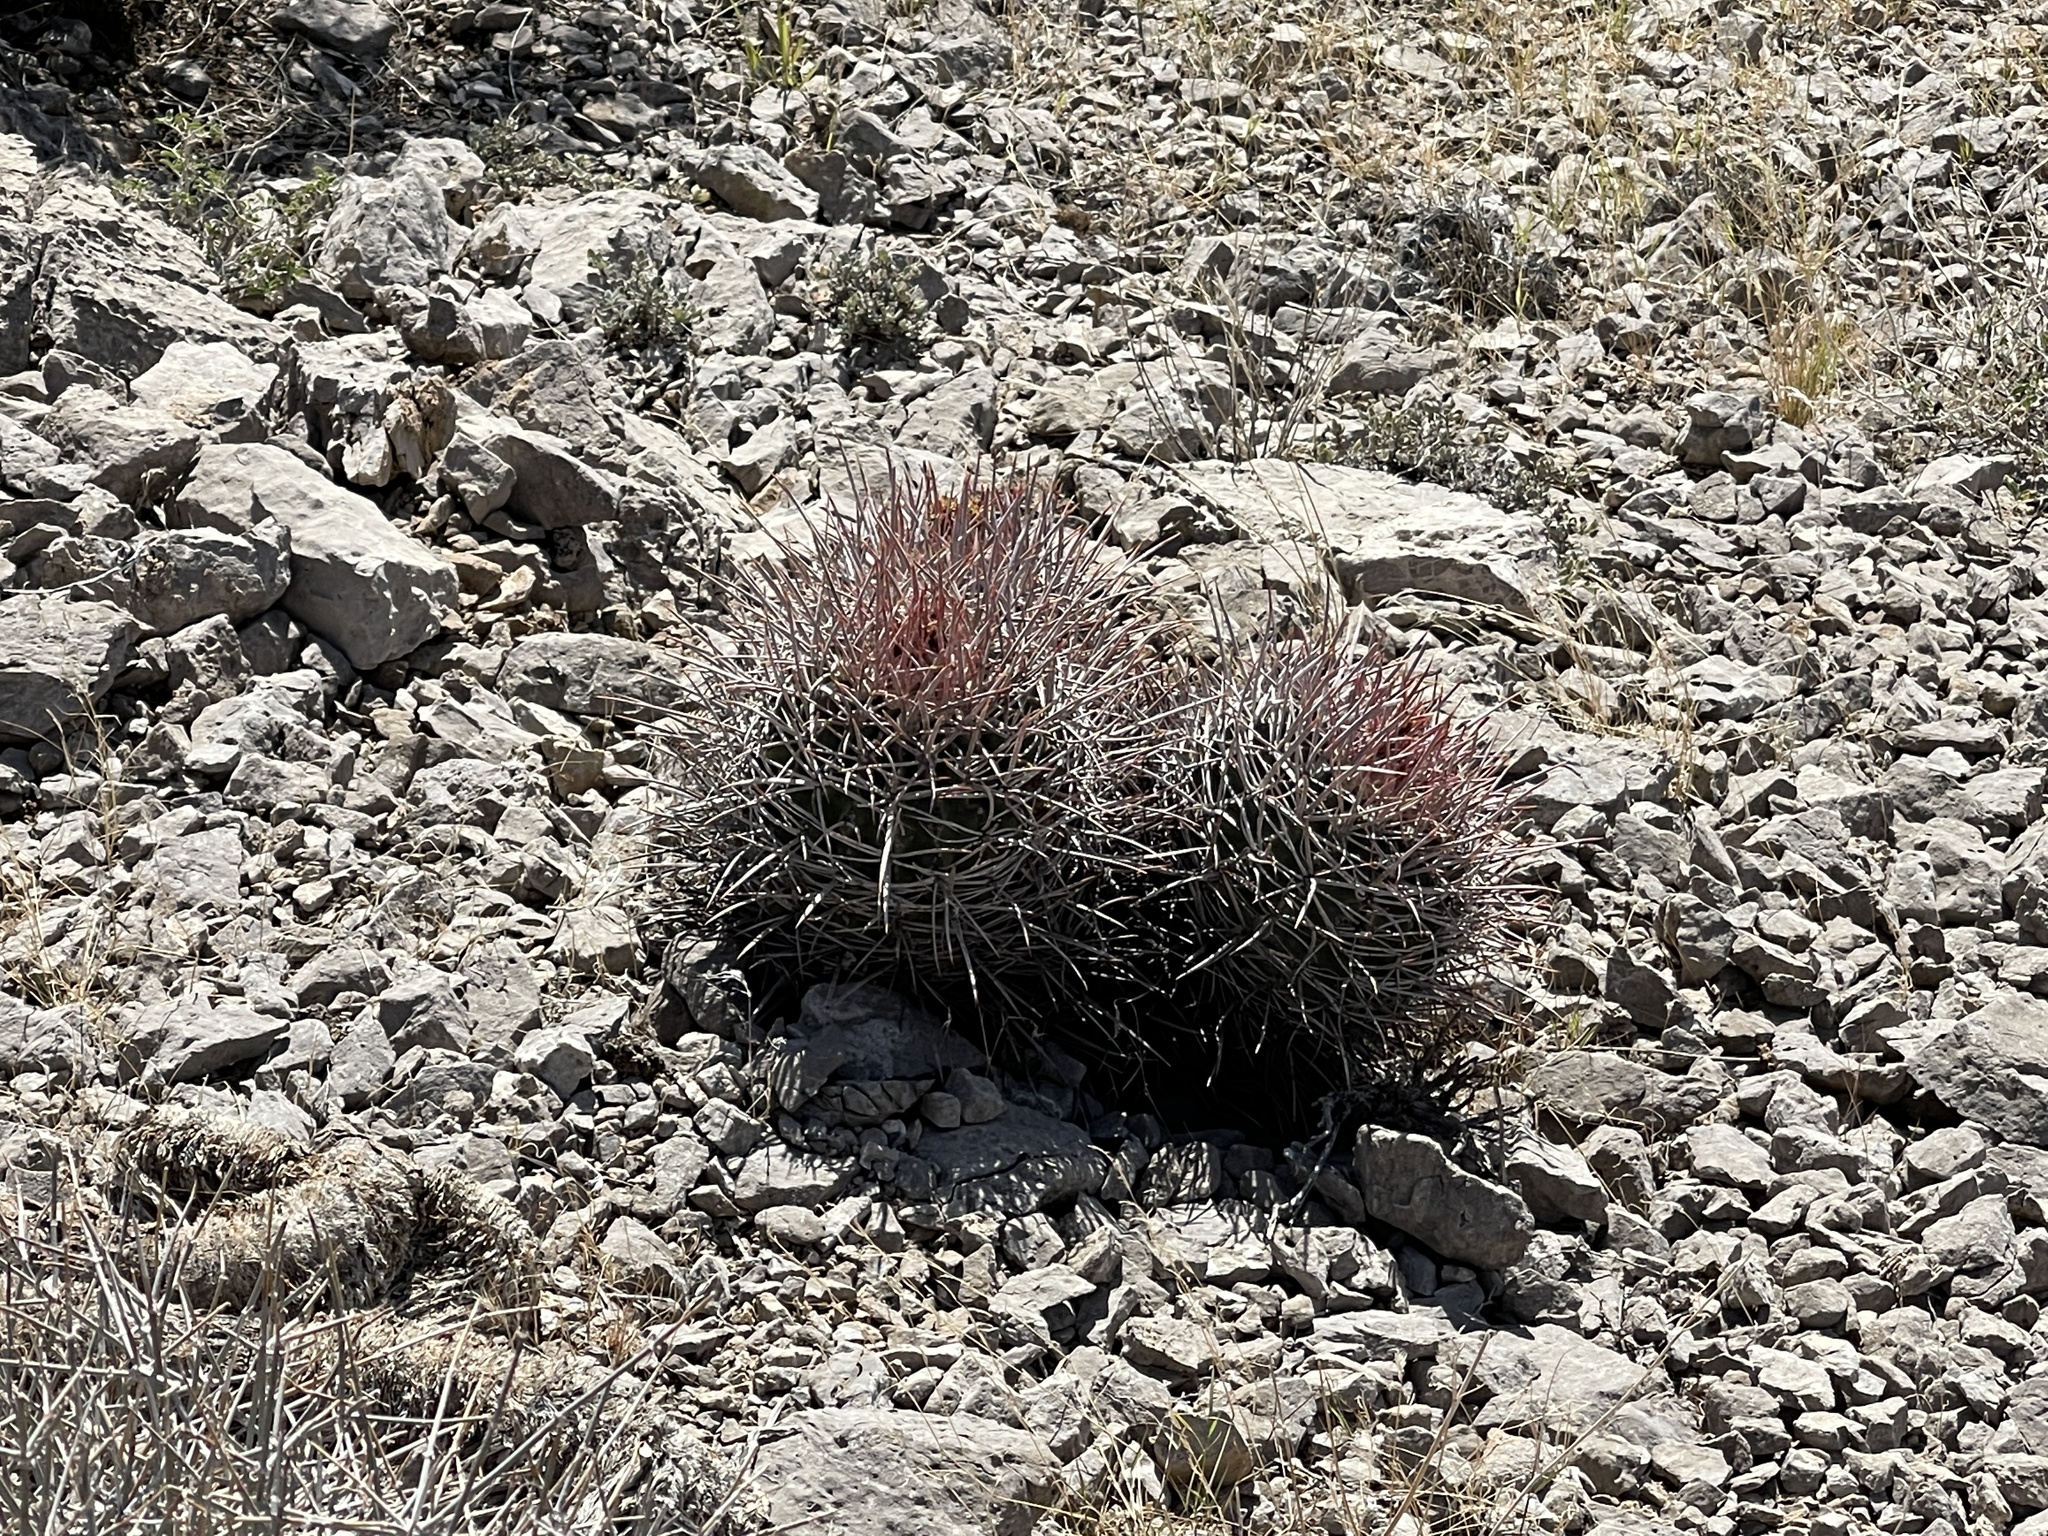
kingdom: Plantae
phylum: Tracheophyta
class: Magnoliopsida
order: Caryophyllales
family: Cactaceae
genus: Echinocactus
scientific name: Echinocactus polycephalus
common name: Cottontop cactus
